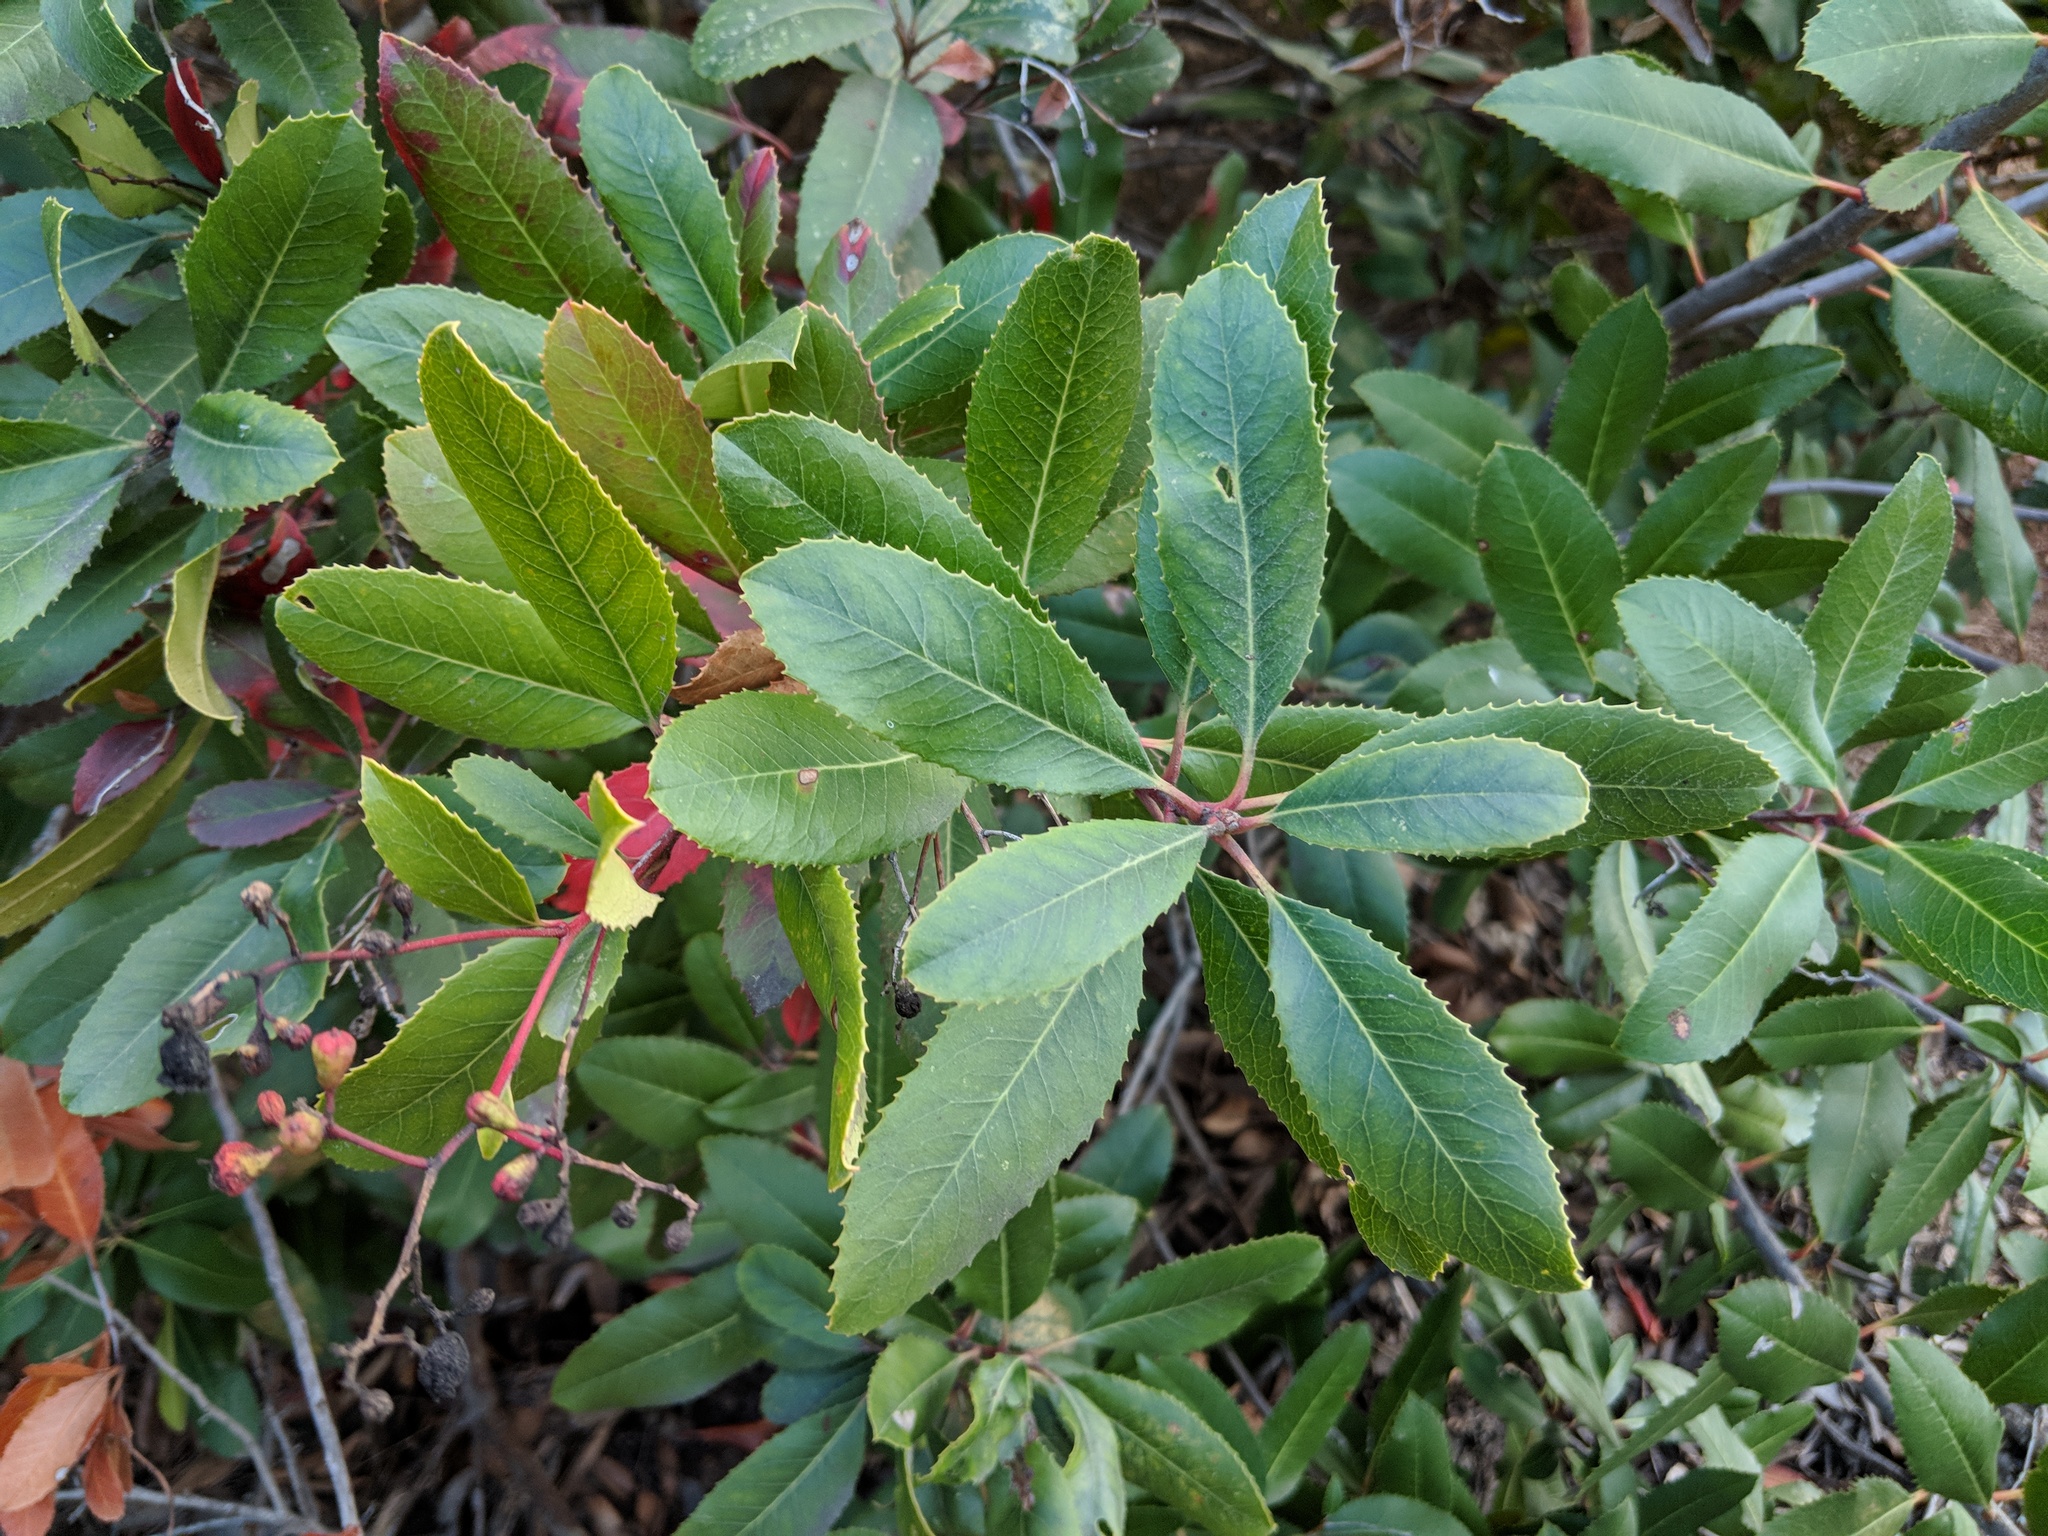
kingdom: Plantae
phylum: Tracheophyta
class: Magnoliopsida
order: Rosales
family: Rosaceae
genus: Heteromeles
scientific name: Heteromeles arbutifolia
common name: California-holly
